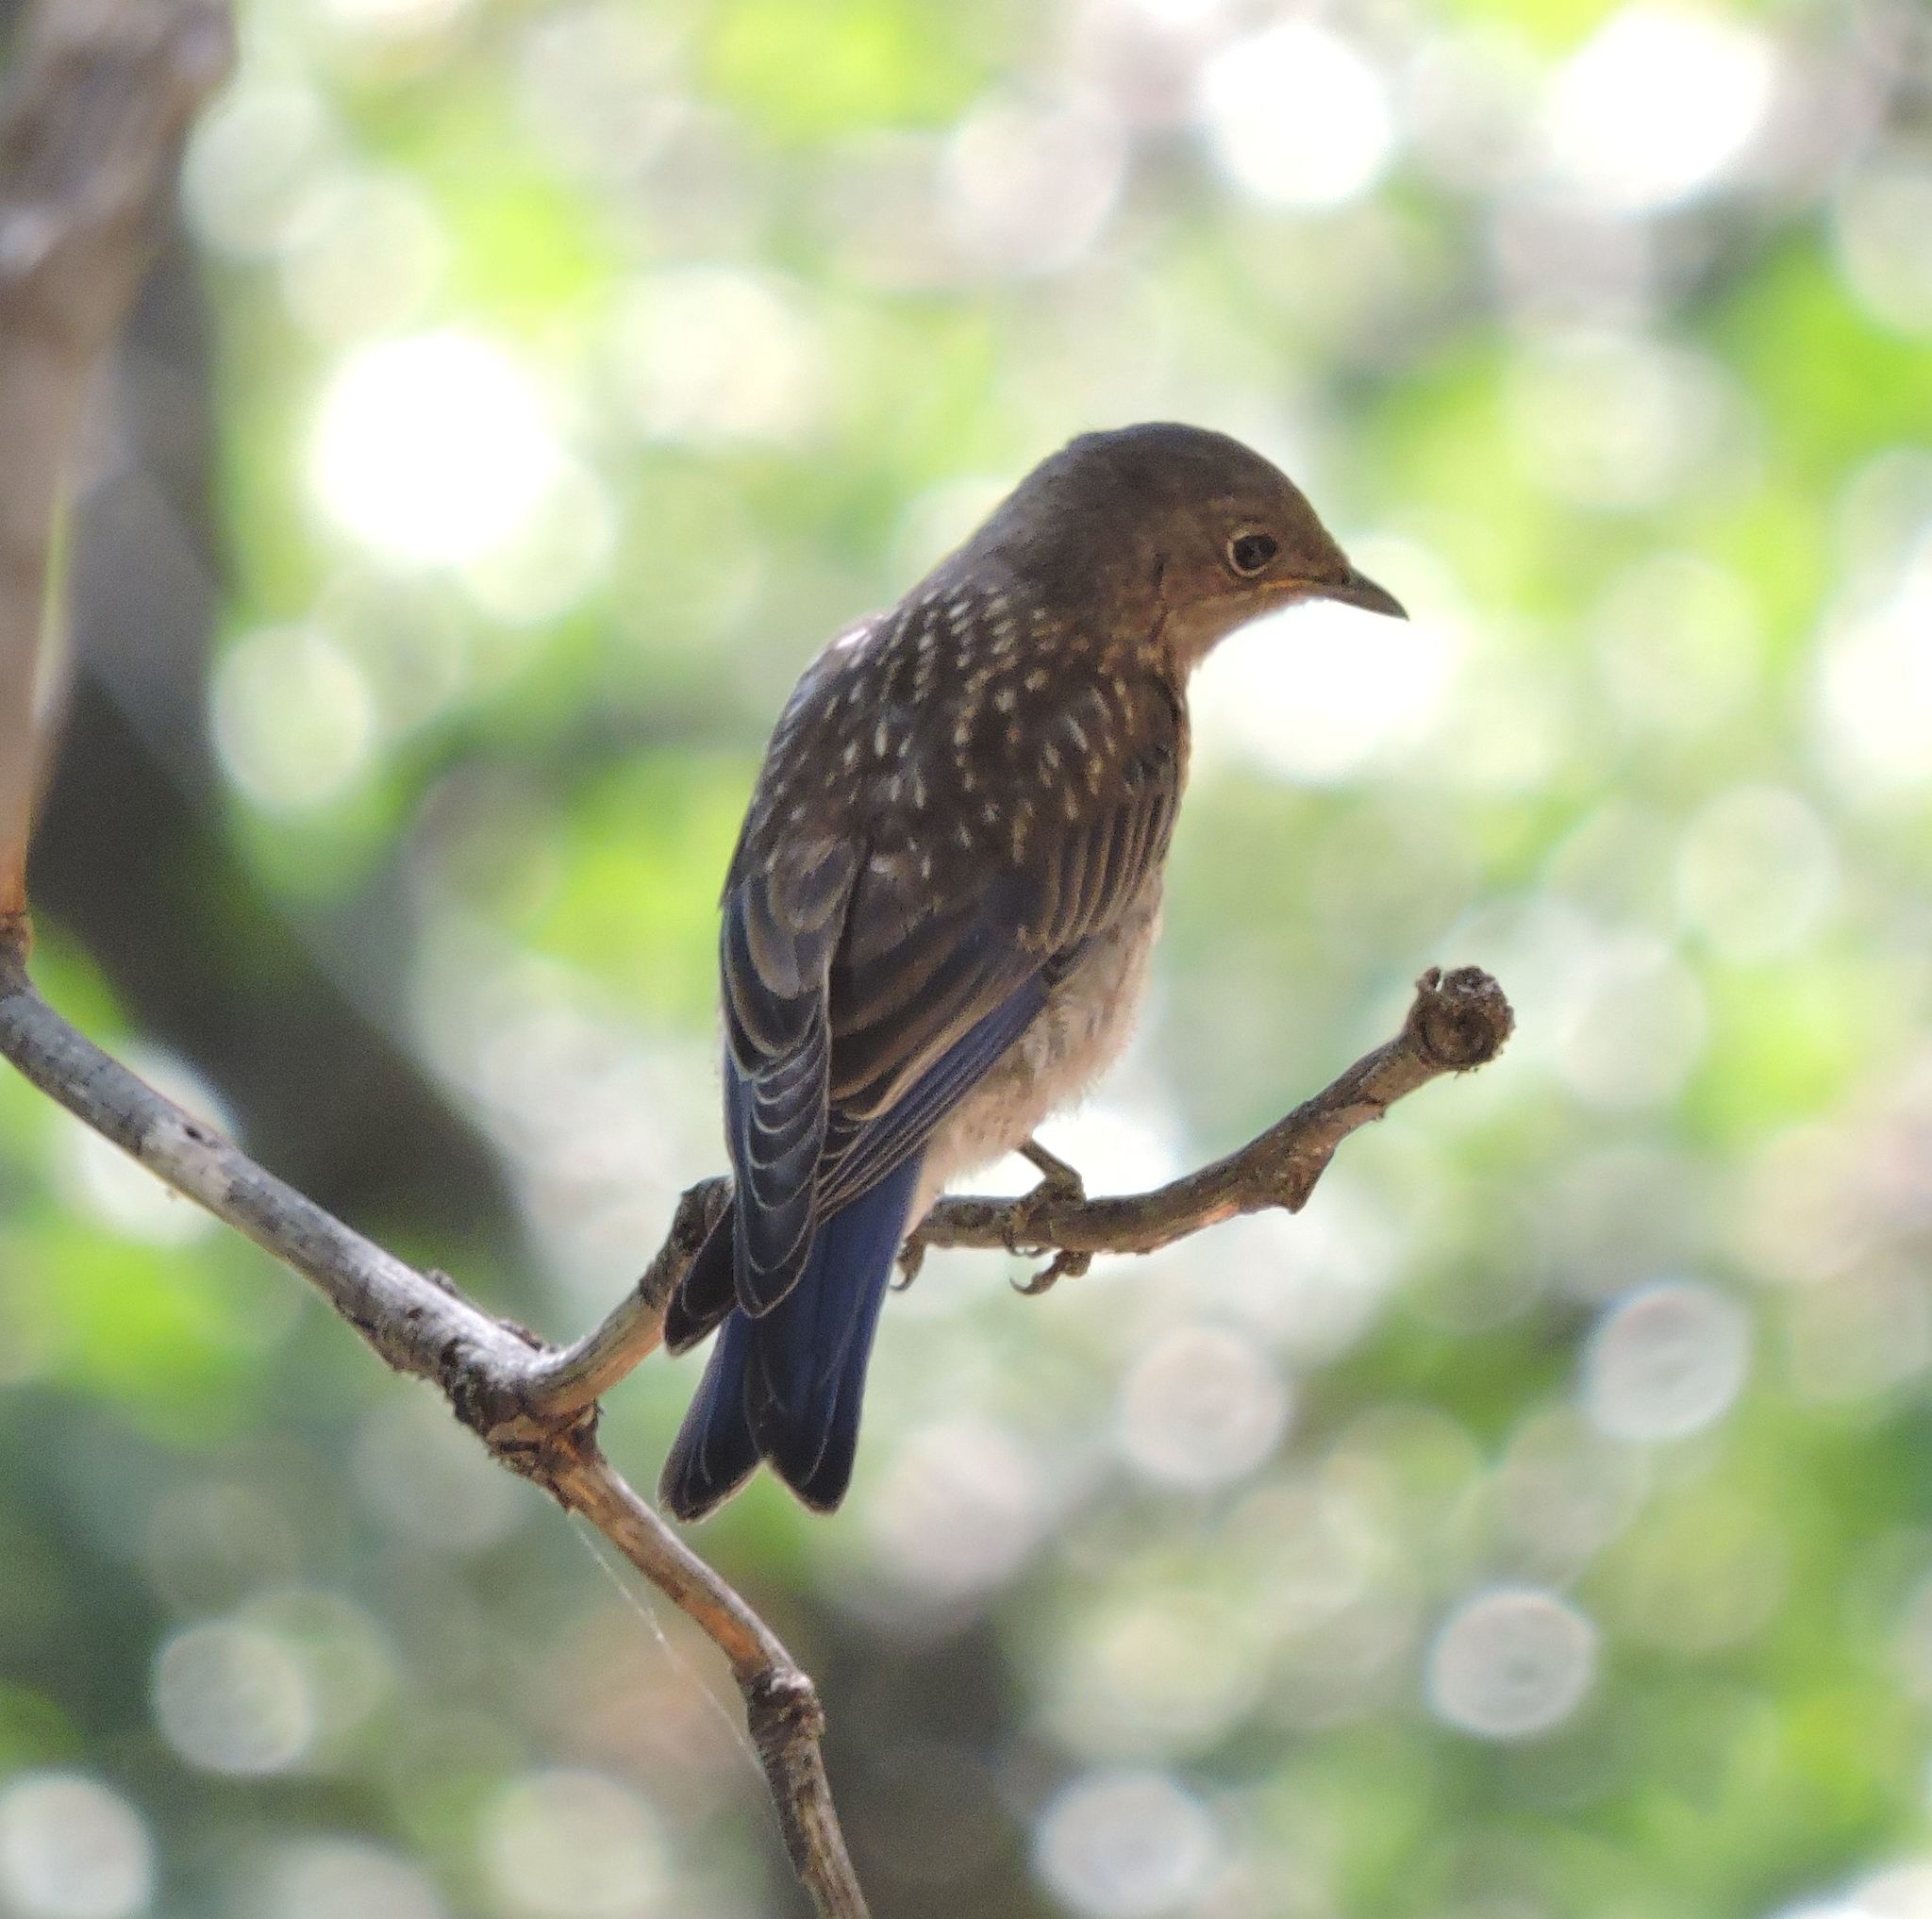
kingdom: Animalia
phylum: Chordata
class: Aves
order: Passeriformes
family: Turdidae
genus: Sialia
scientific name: Sialia mexicana
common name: Western bluebird
